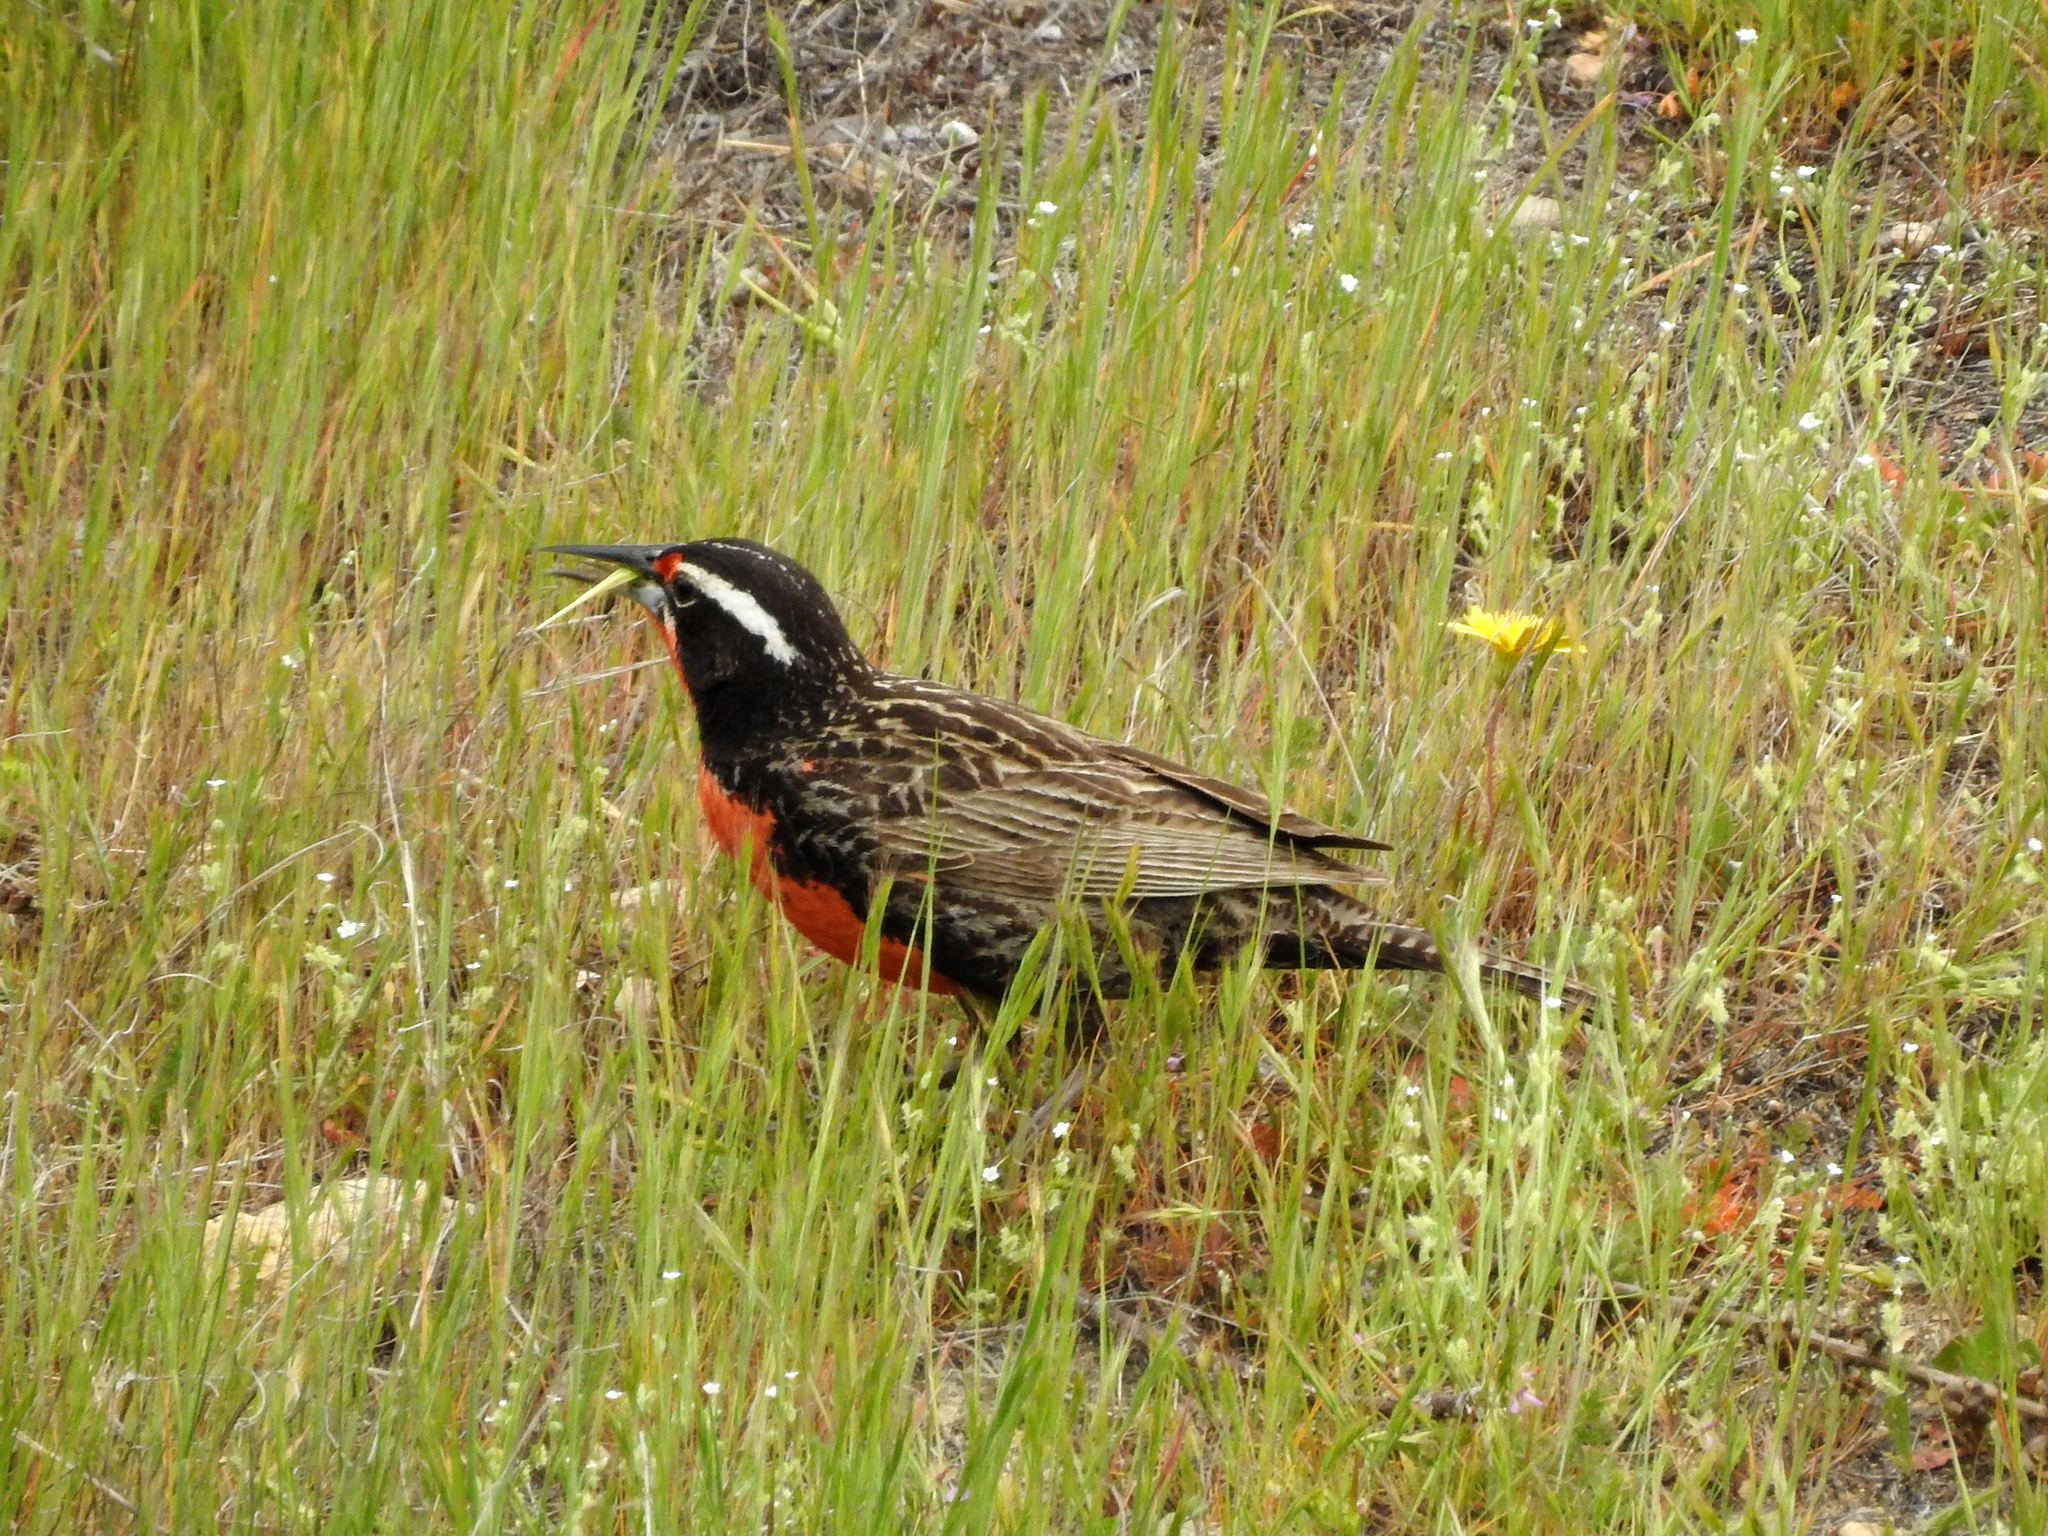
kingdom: Animalia
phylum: Chordata
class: Aves
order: Passeriformes
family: Icteridae
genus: Sturnella
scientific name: Sturnella loyca
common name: Long-tailed meadowlark
